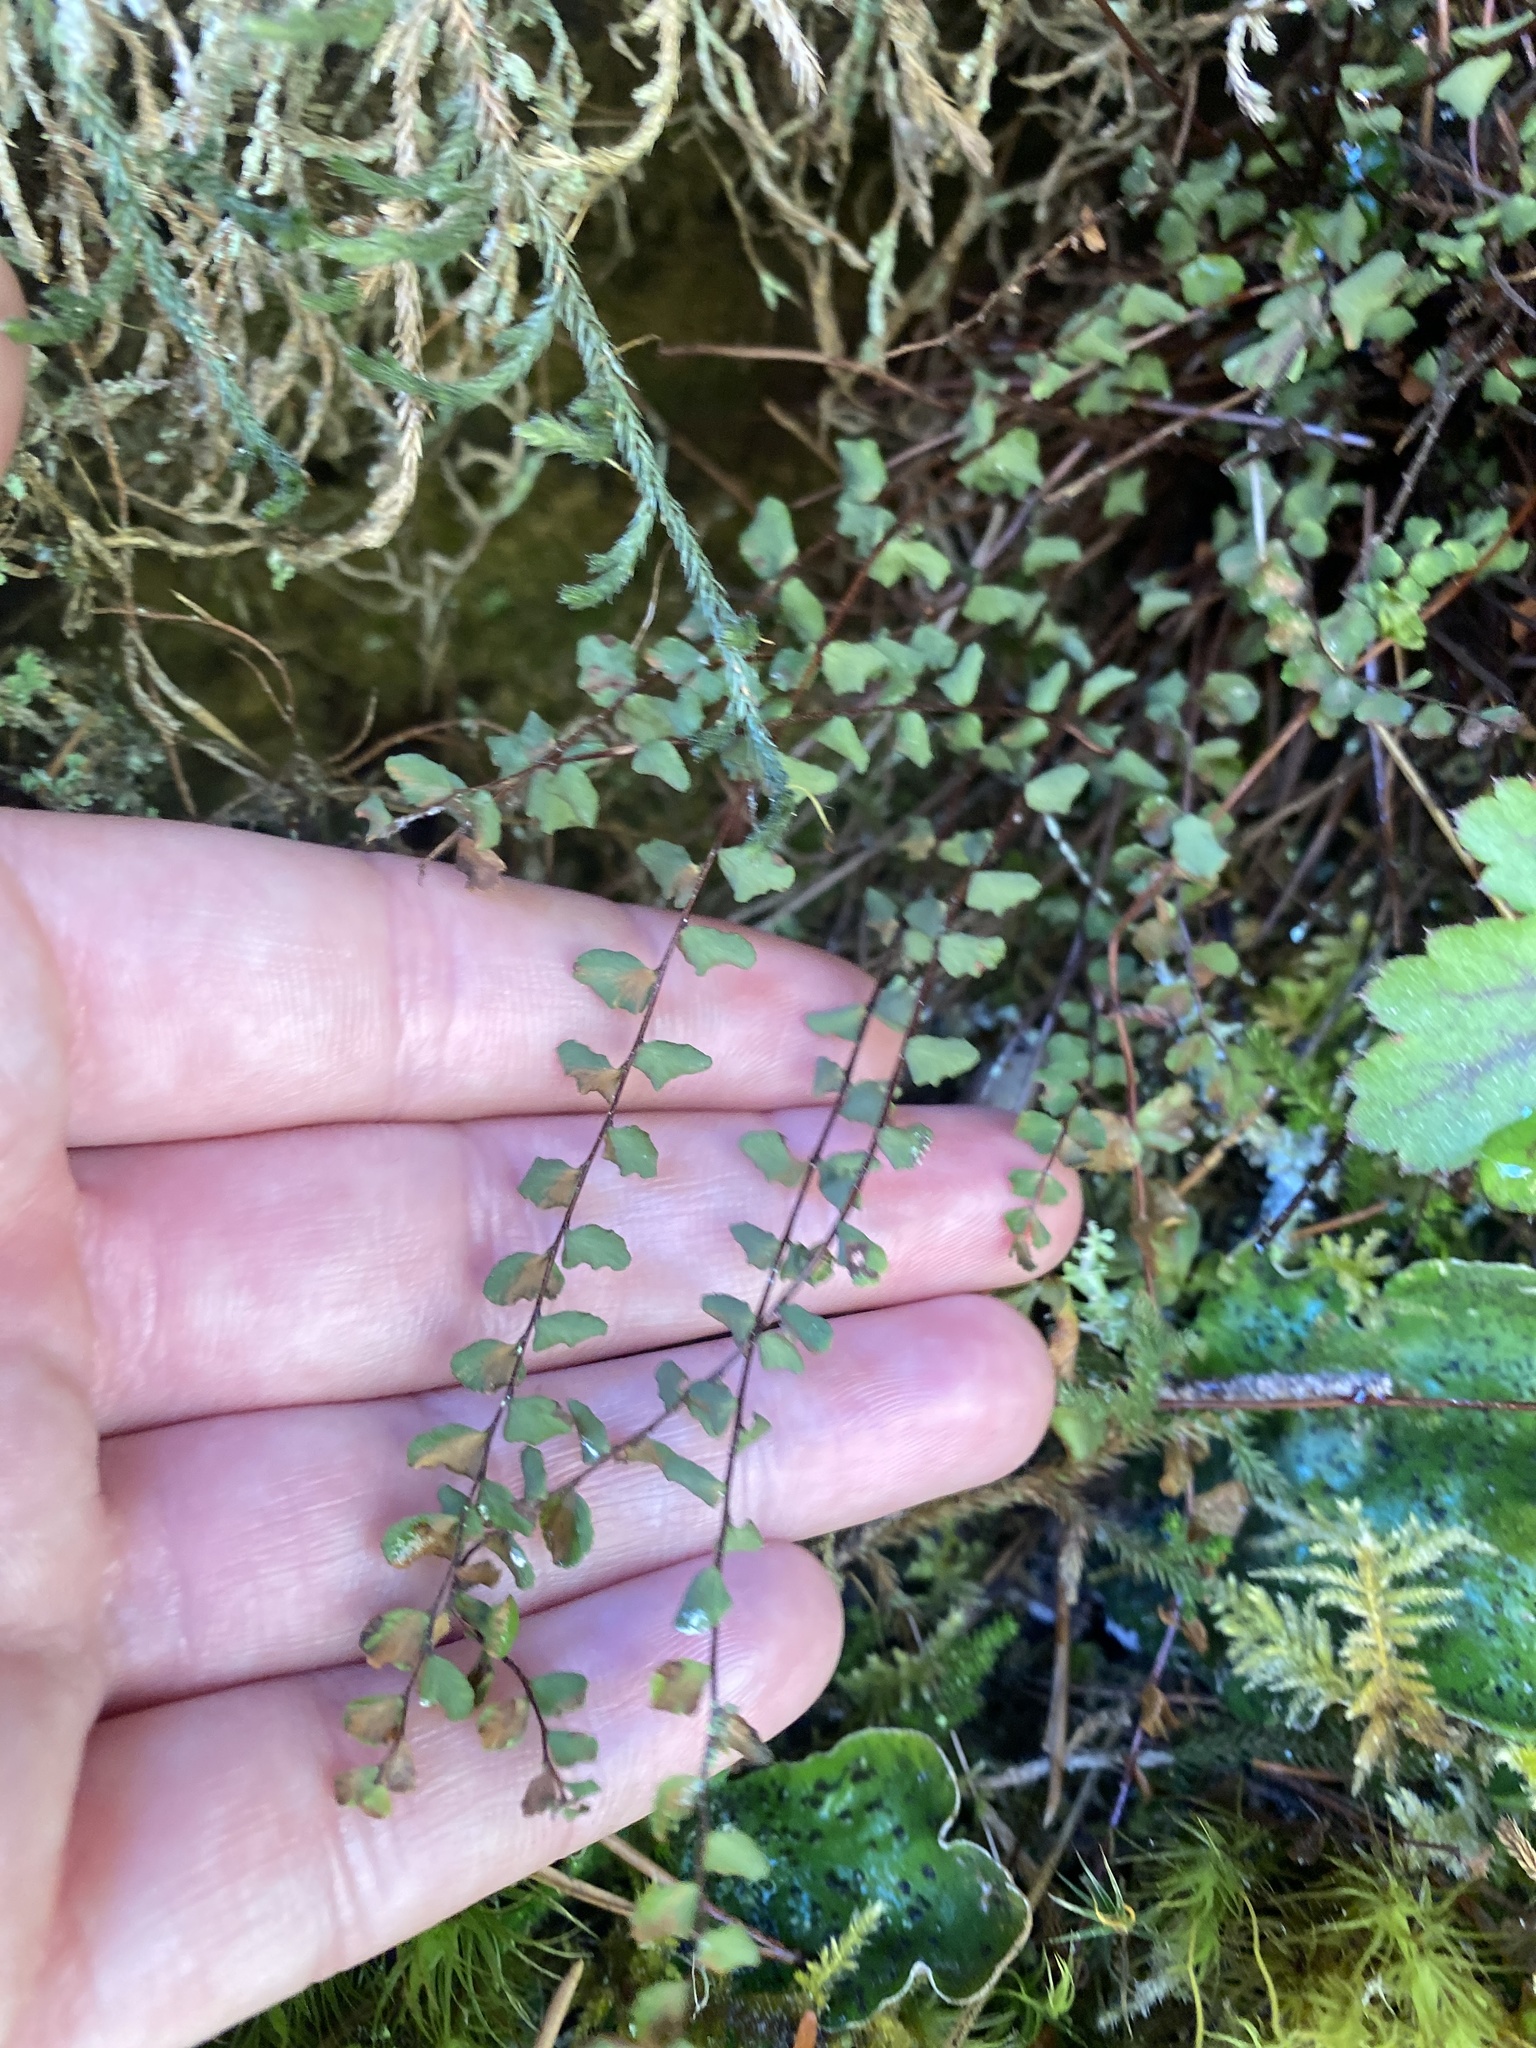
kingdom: Plantae
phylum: Tracheophyta
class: Polypodiopsida
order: Polypodiales
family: Aspleniaceae
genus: Asplenium
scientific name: Asplenium trichomanes
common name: Maidenhair spleenwort
